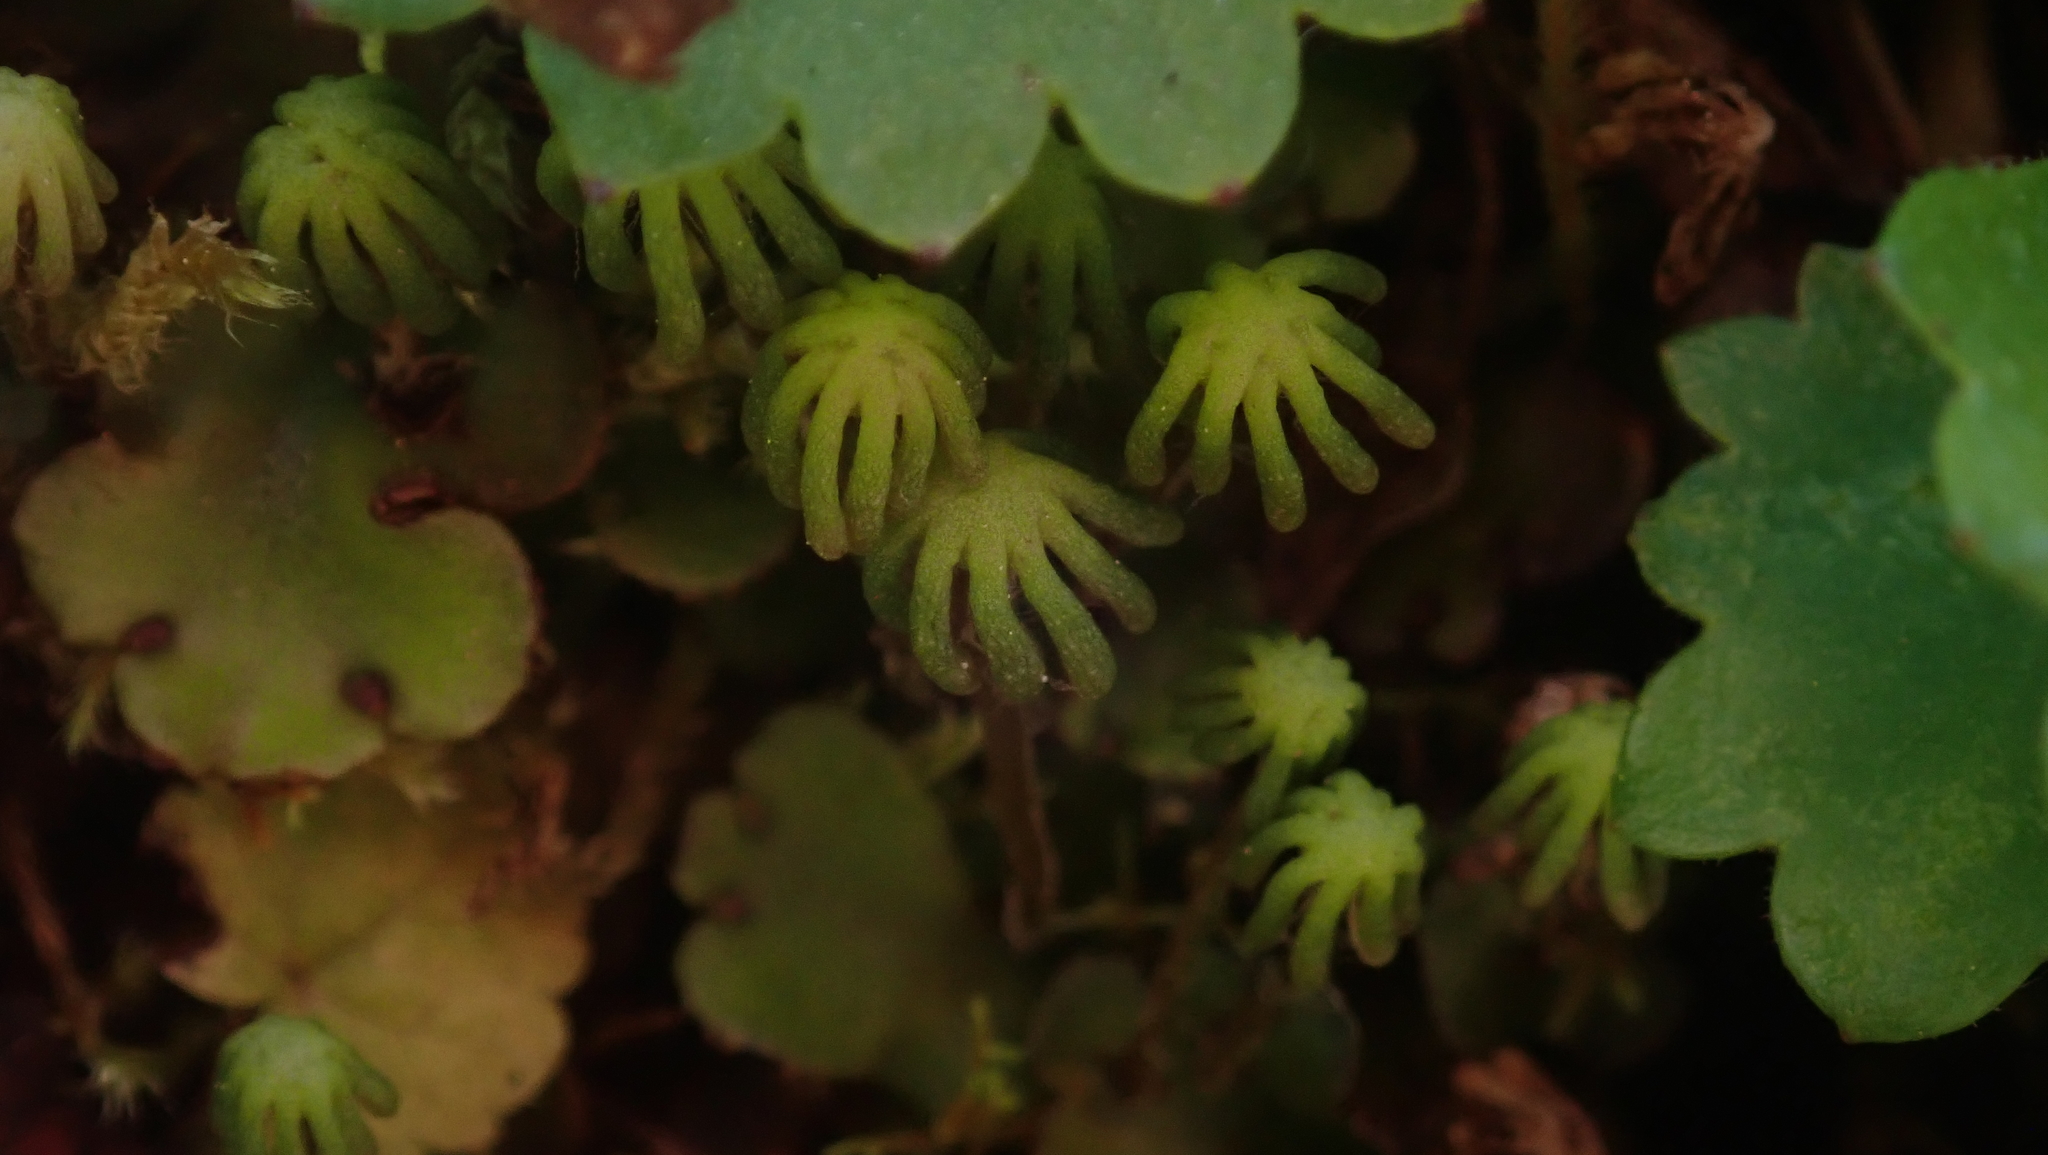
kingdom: Plantae
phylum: Marchantiophyta
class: Marchantiopsida
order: Marchantiales
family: Marchantiaceae
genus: Marchantia
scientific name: Marchantia polymorpha
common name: Common liverwort
